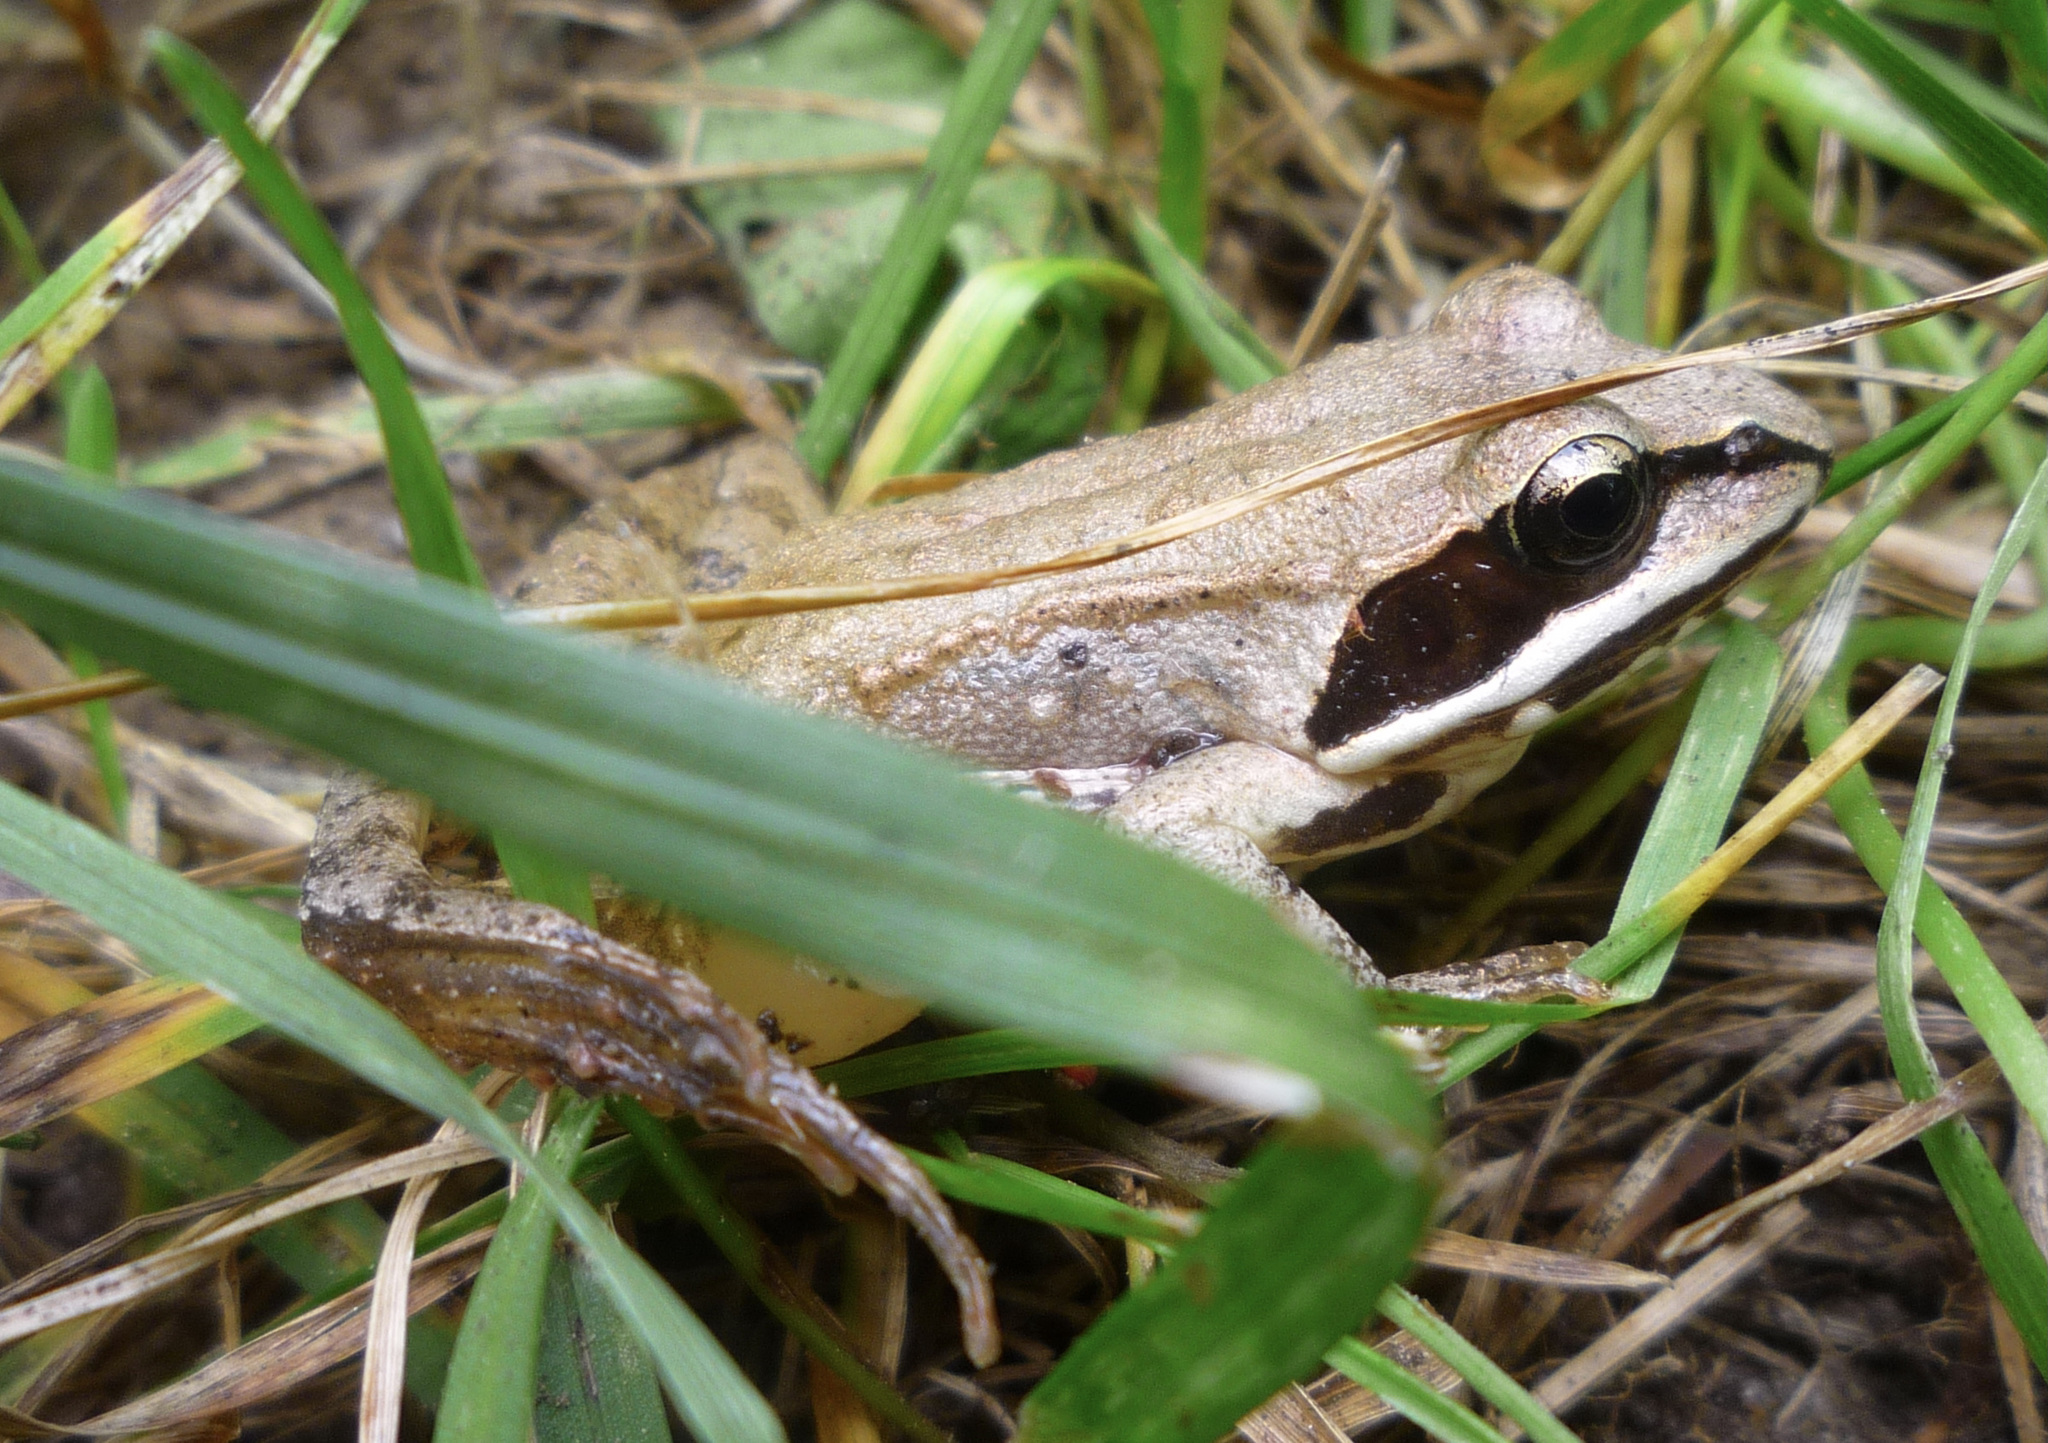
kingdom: Animalia
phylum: Chordata
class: Amphibia
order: Anura
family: Ranidae
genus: Lithobates
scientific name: Lithobates sylvaticus
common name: Wood frog
